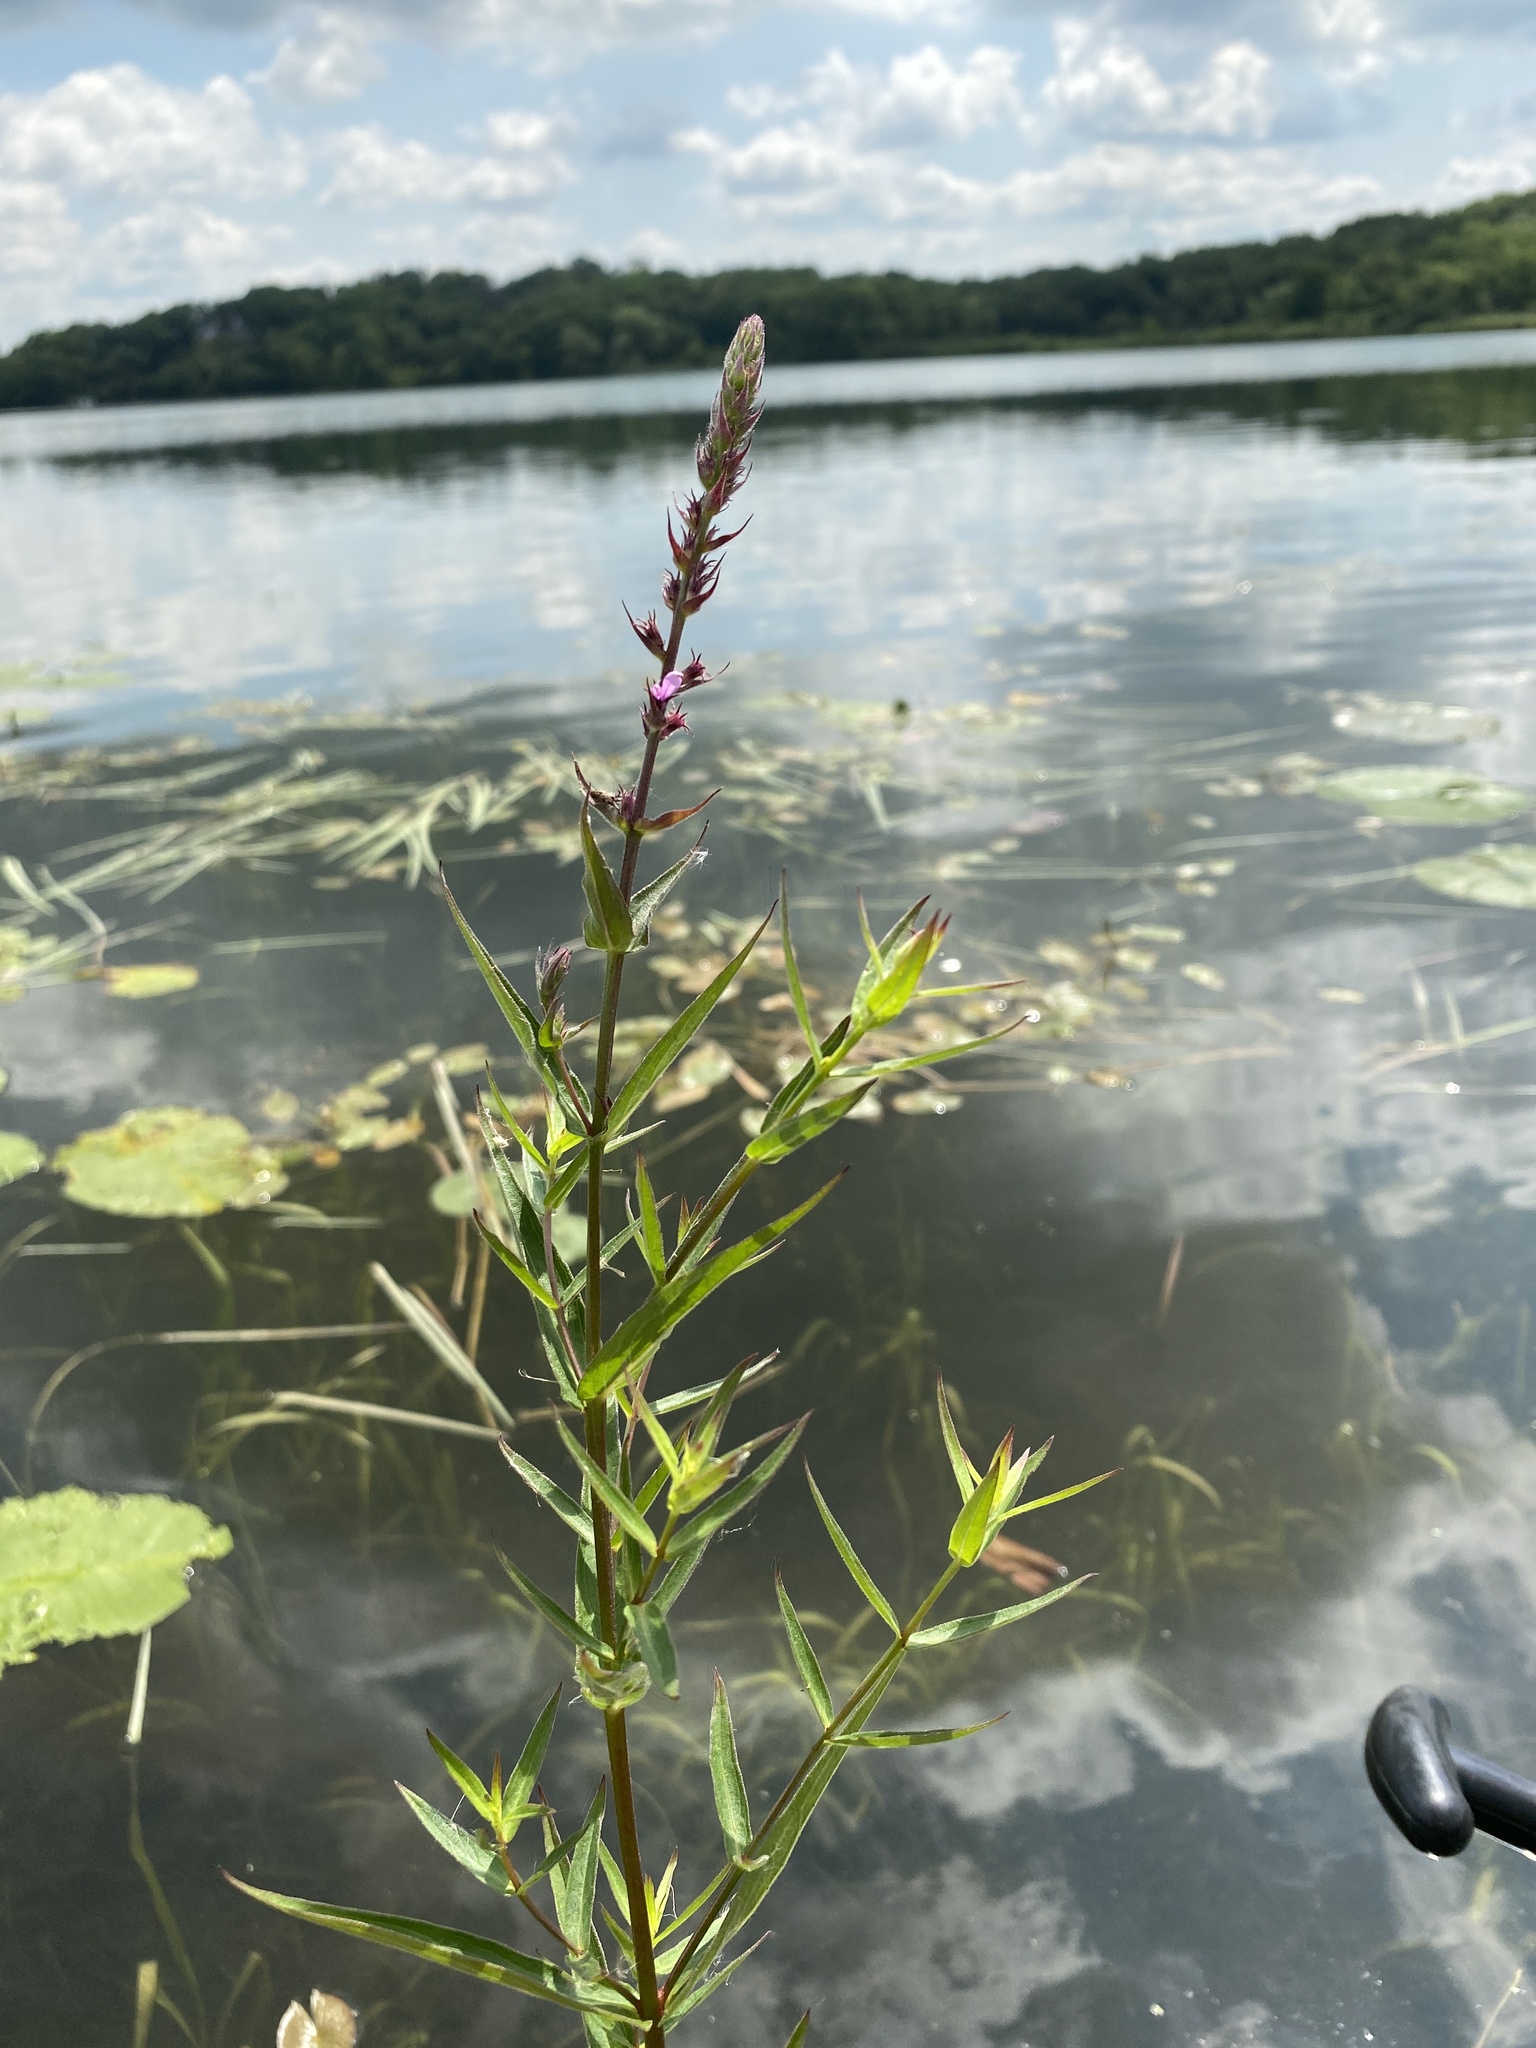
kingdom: Plantae
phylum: Tracheophyta
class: Magnoliopsida
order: Myrtales
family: Lythraceae
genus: Lythrum
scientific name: Lythrum salicaria
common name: Purple loosestrife
